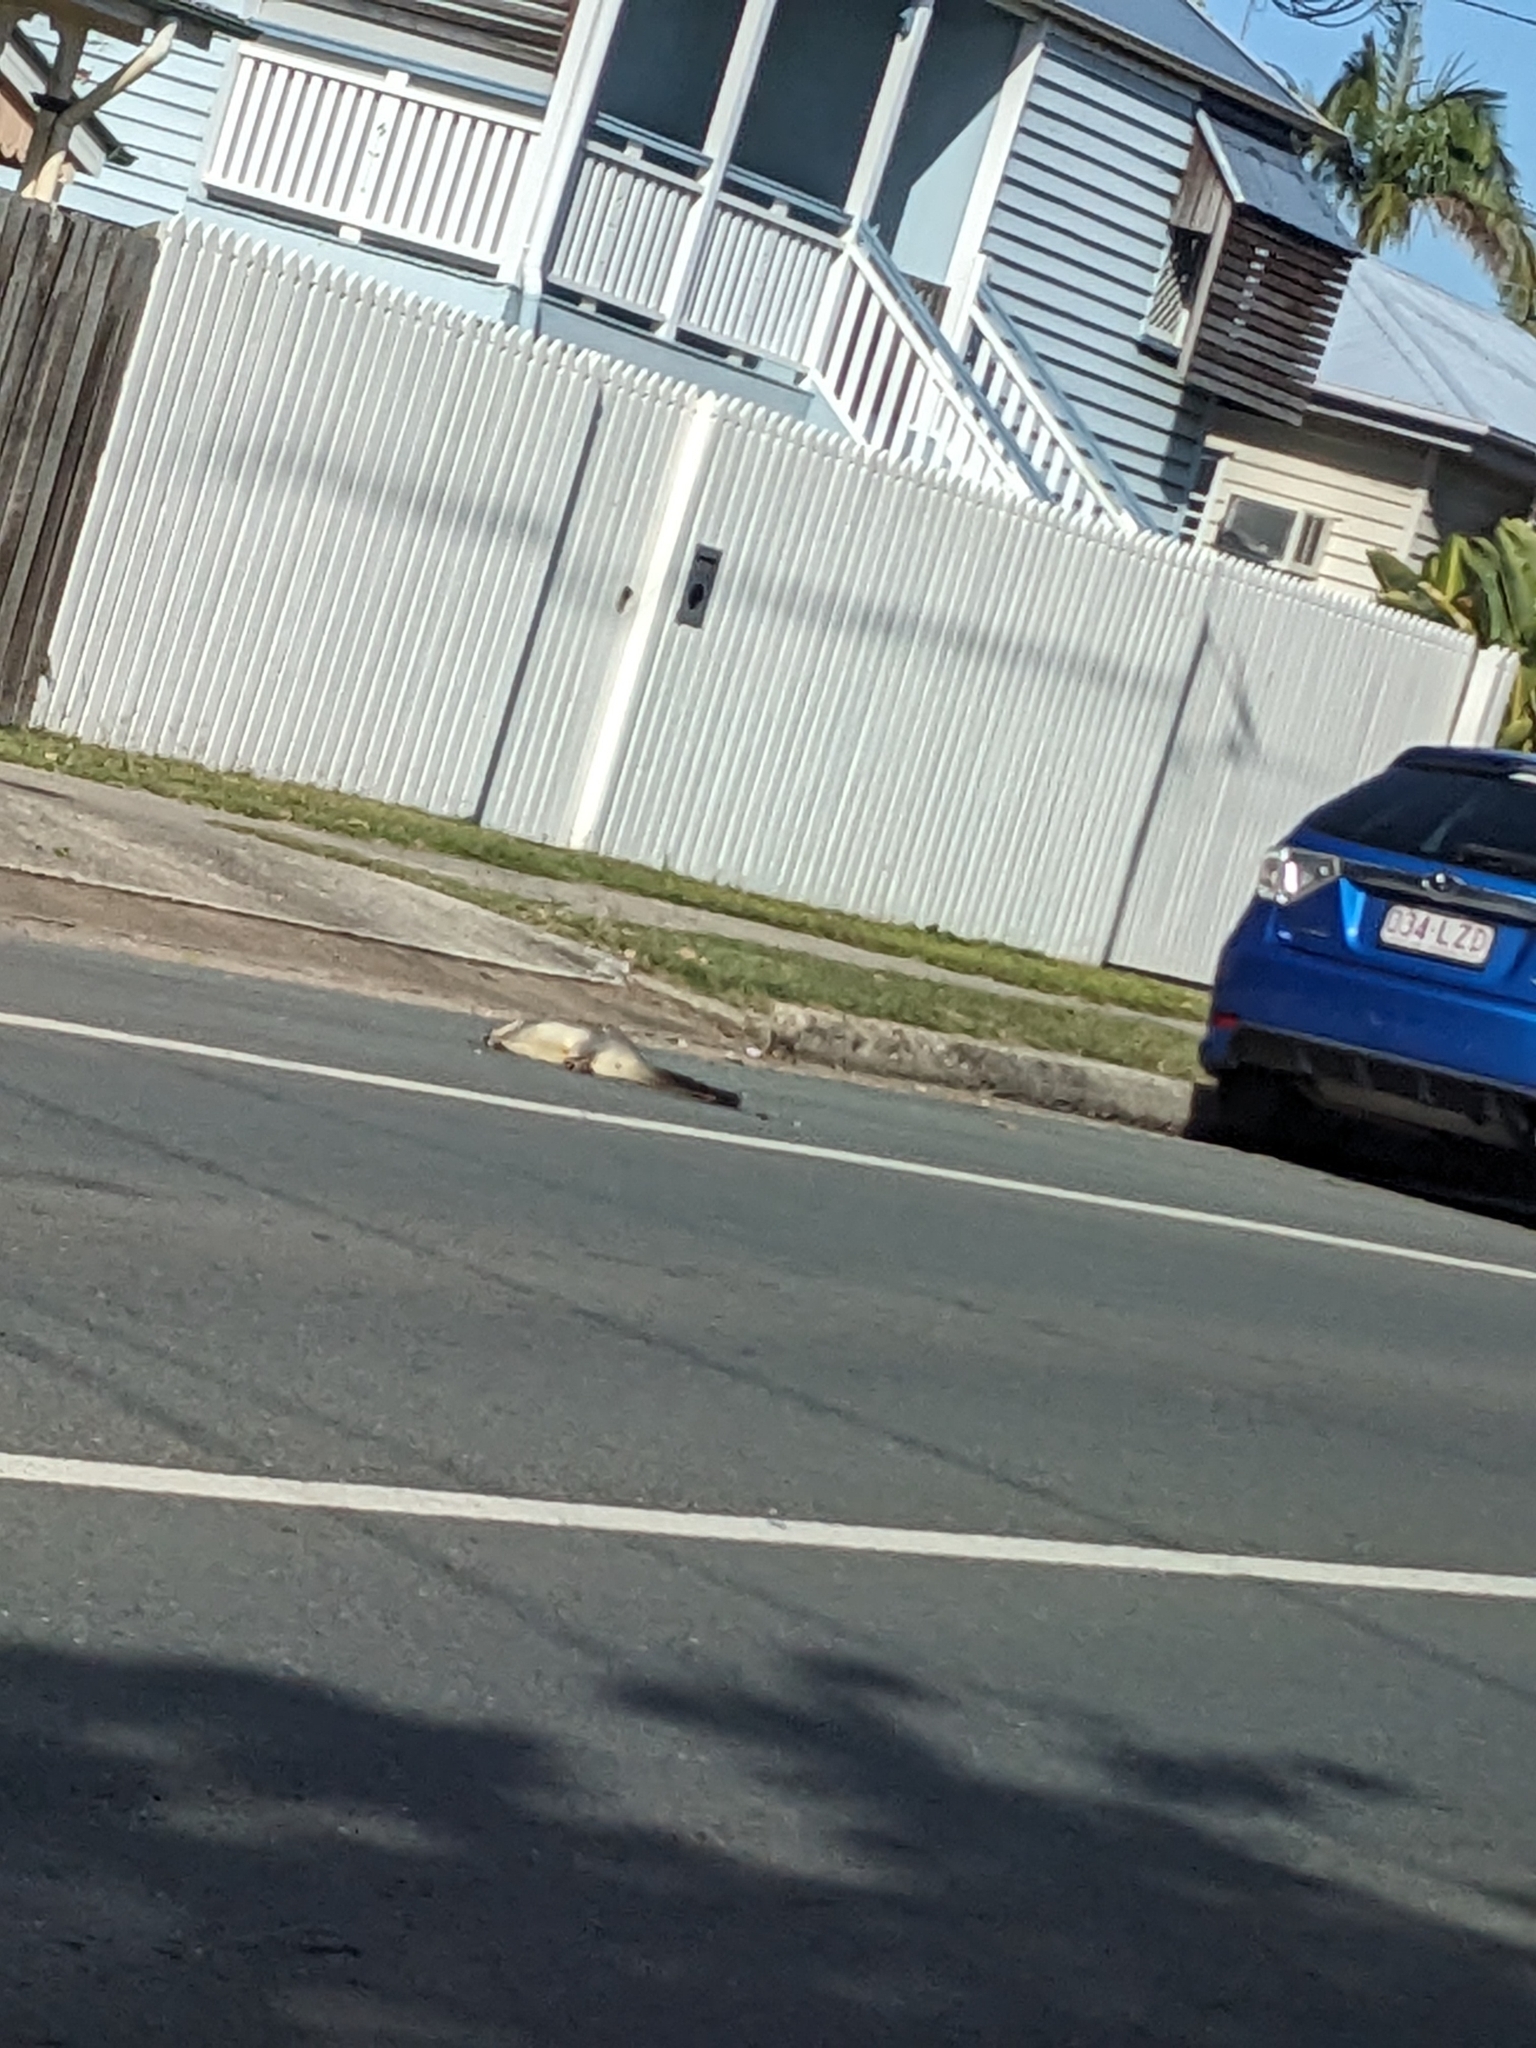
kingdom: Animalia
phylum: Chordata
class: Mammalia
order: Diprotodontia
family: Phalangeridae
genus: Trichosurus
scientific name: Trichosurus vulpecula
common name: Common brushtail
